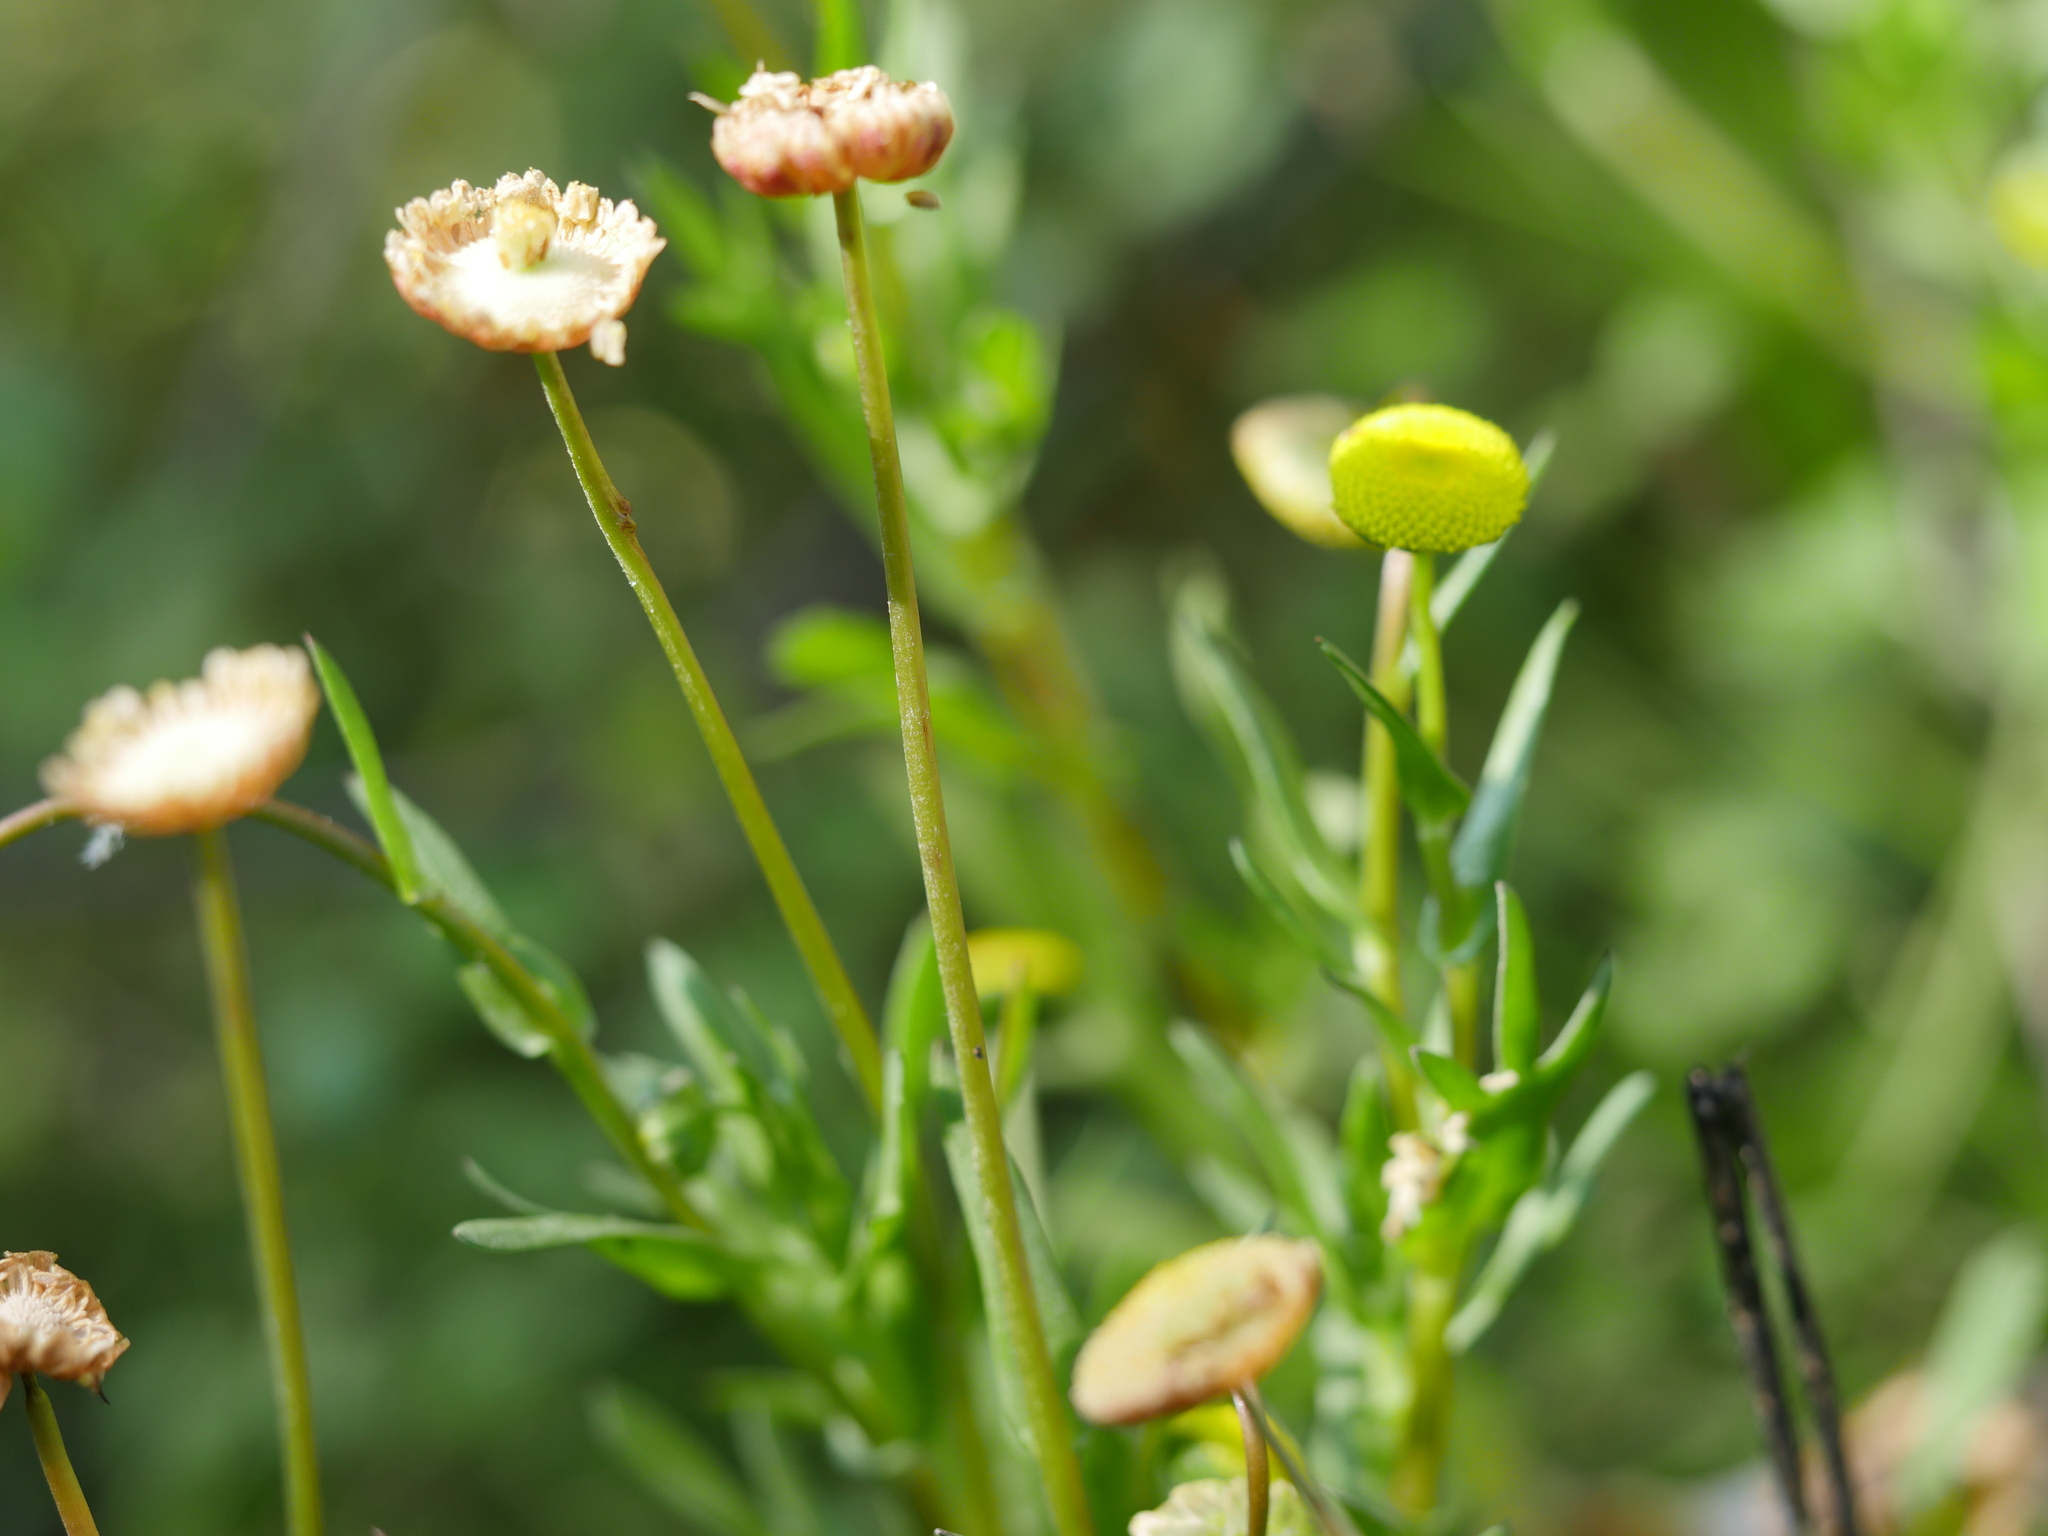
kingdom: Plantae
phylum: Tracheophyta
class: Magnoliopsida
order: Asterales
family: Asteraceae
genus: Cotula
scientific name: Cotula coronopifolia
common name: Buttonweed
